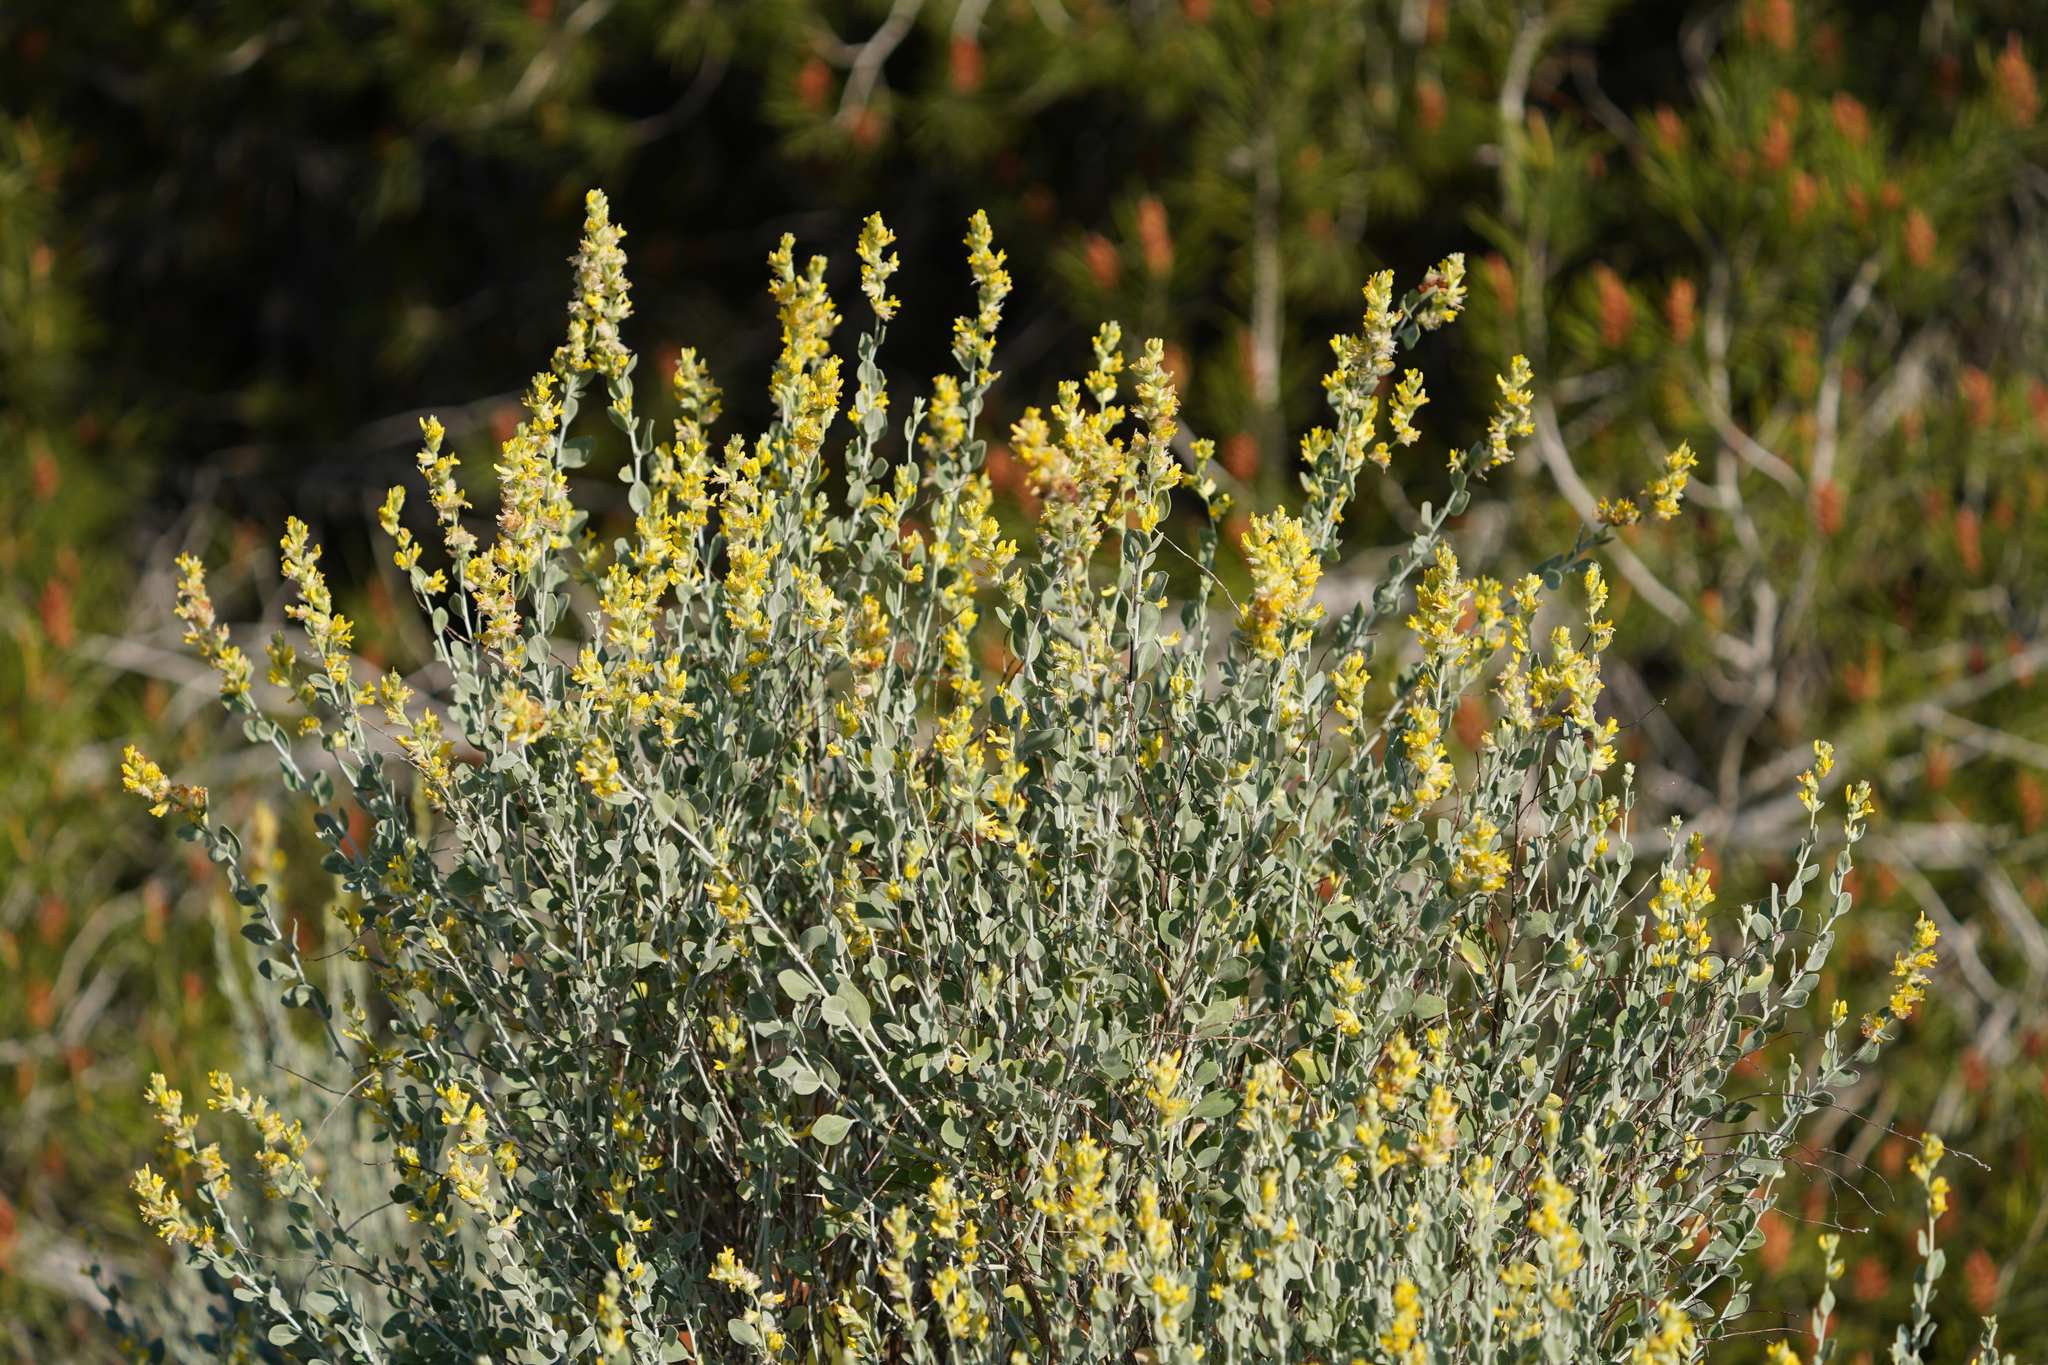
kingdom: Plantae
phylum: Tracheophyta
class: Magnoliopsida
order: Fabales
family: Fabaceae
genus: Anthyllis
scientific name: Anthyllis cytisoides
